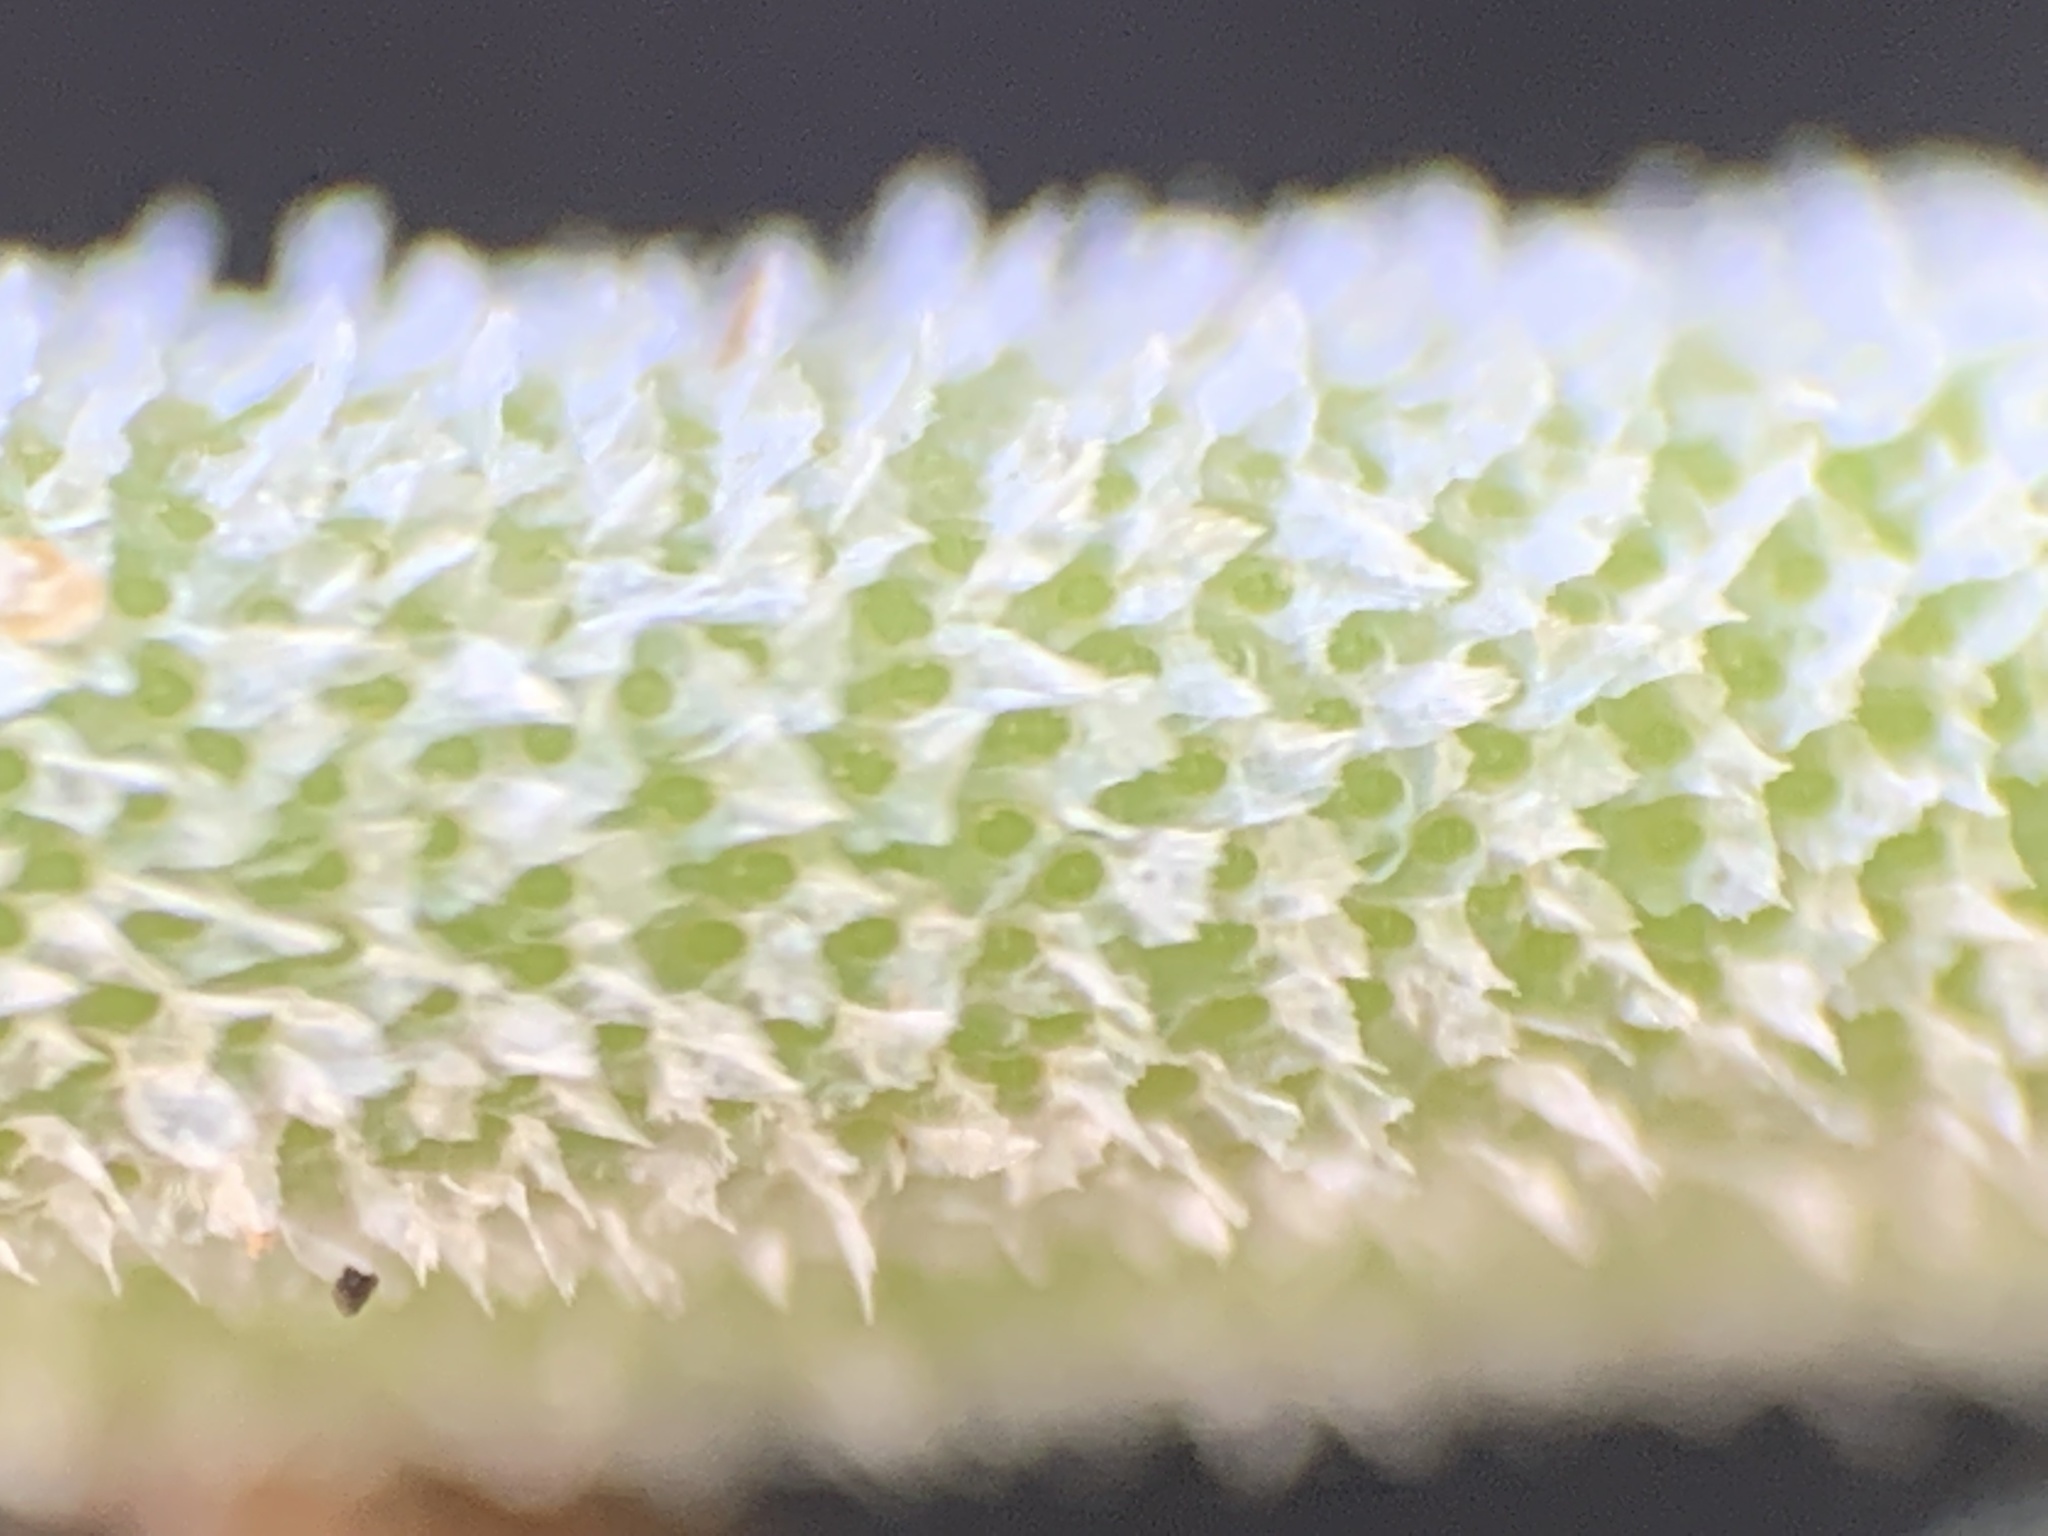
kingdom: Plantae
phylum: Tracheophyta
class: Liliopsida
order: Poales
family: Bromeliaceae
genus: Tillandsia
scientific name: Tillandsia recurvata
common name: Small ballmoss
